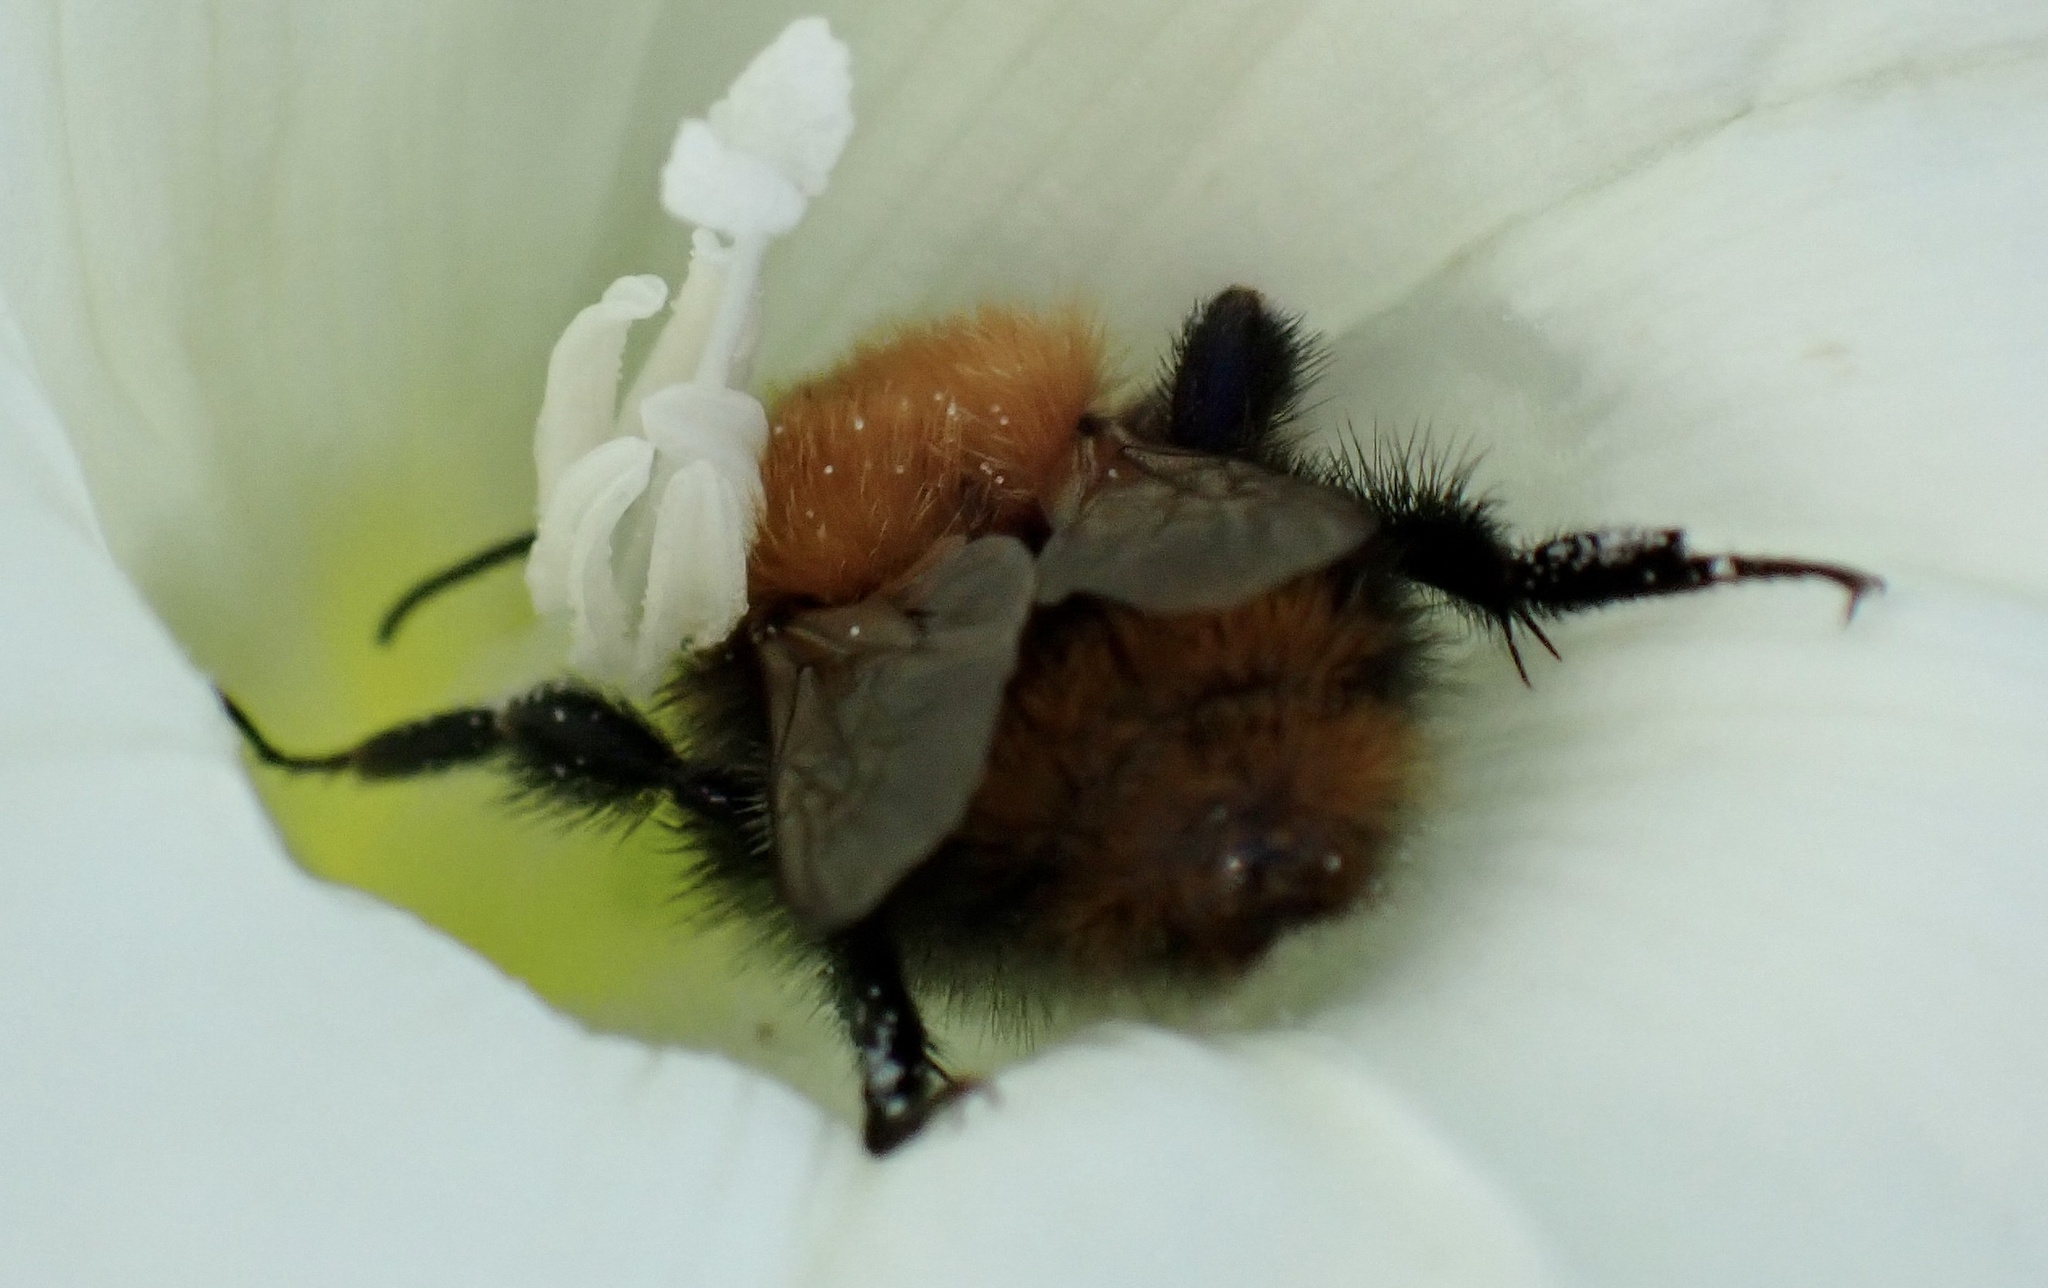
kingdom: Animalia
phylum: Arthropoda
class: Insecta
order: Hymenoptera
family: Apidae
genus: Bombus
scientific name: Bombus pascuorum
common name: Common carder bee
